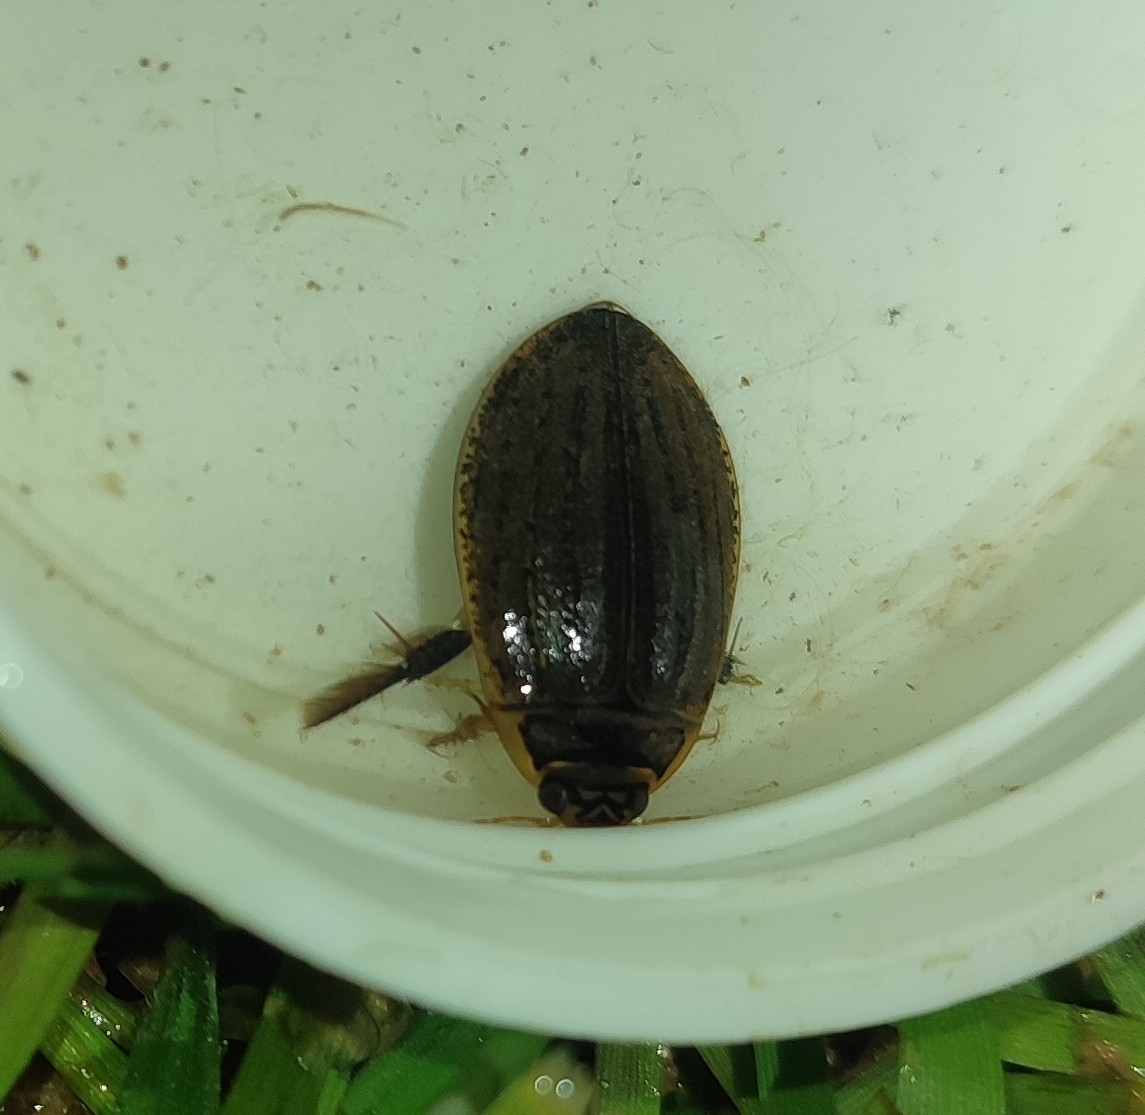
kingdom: Animalia
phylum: Arthropoda
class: Insecta
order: Coleoptera
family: Dytiscidae
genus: Acilius
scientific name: Acilius sulcatus
